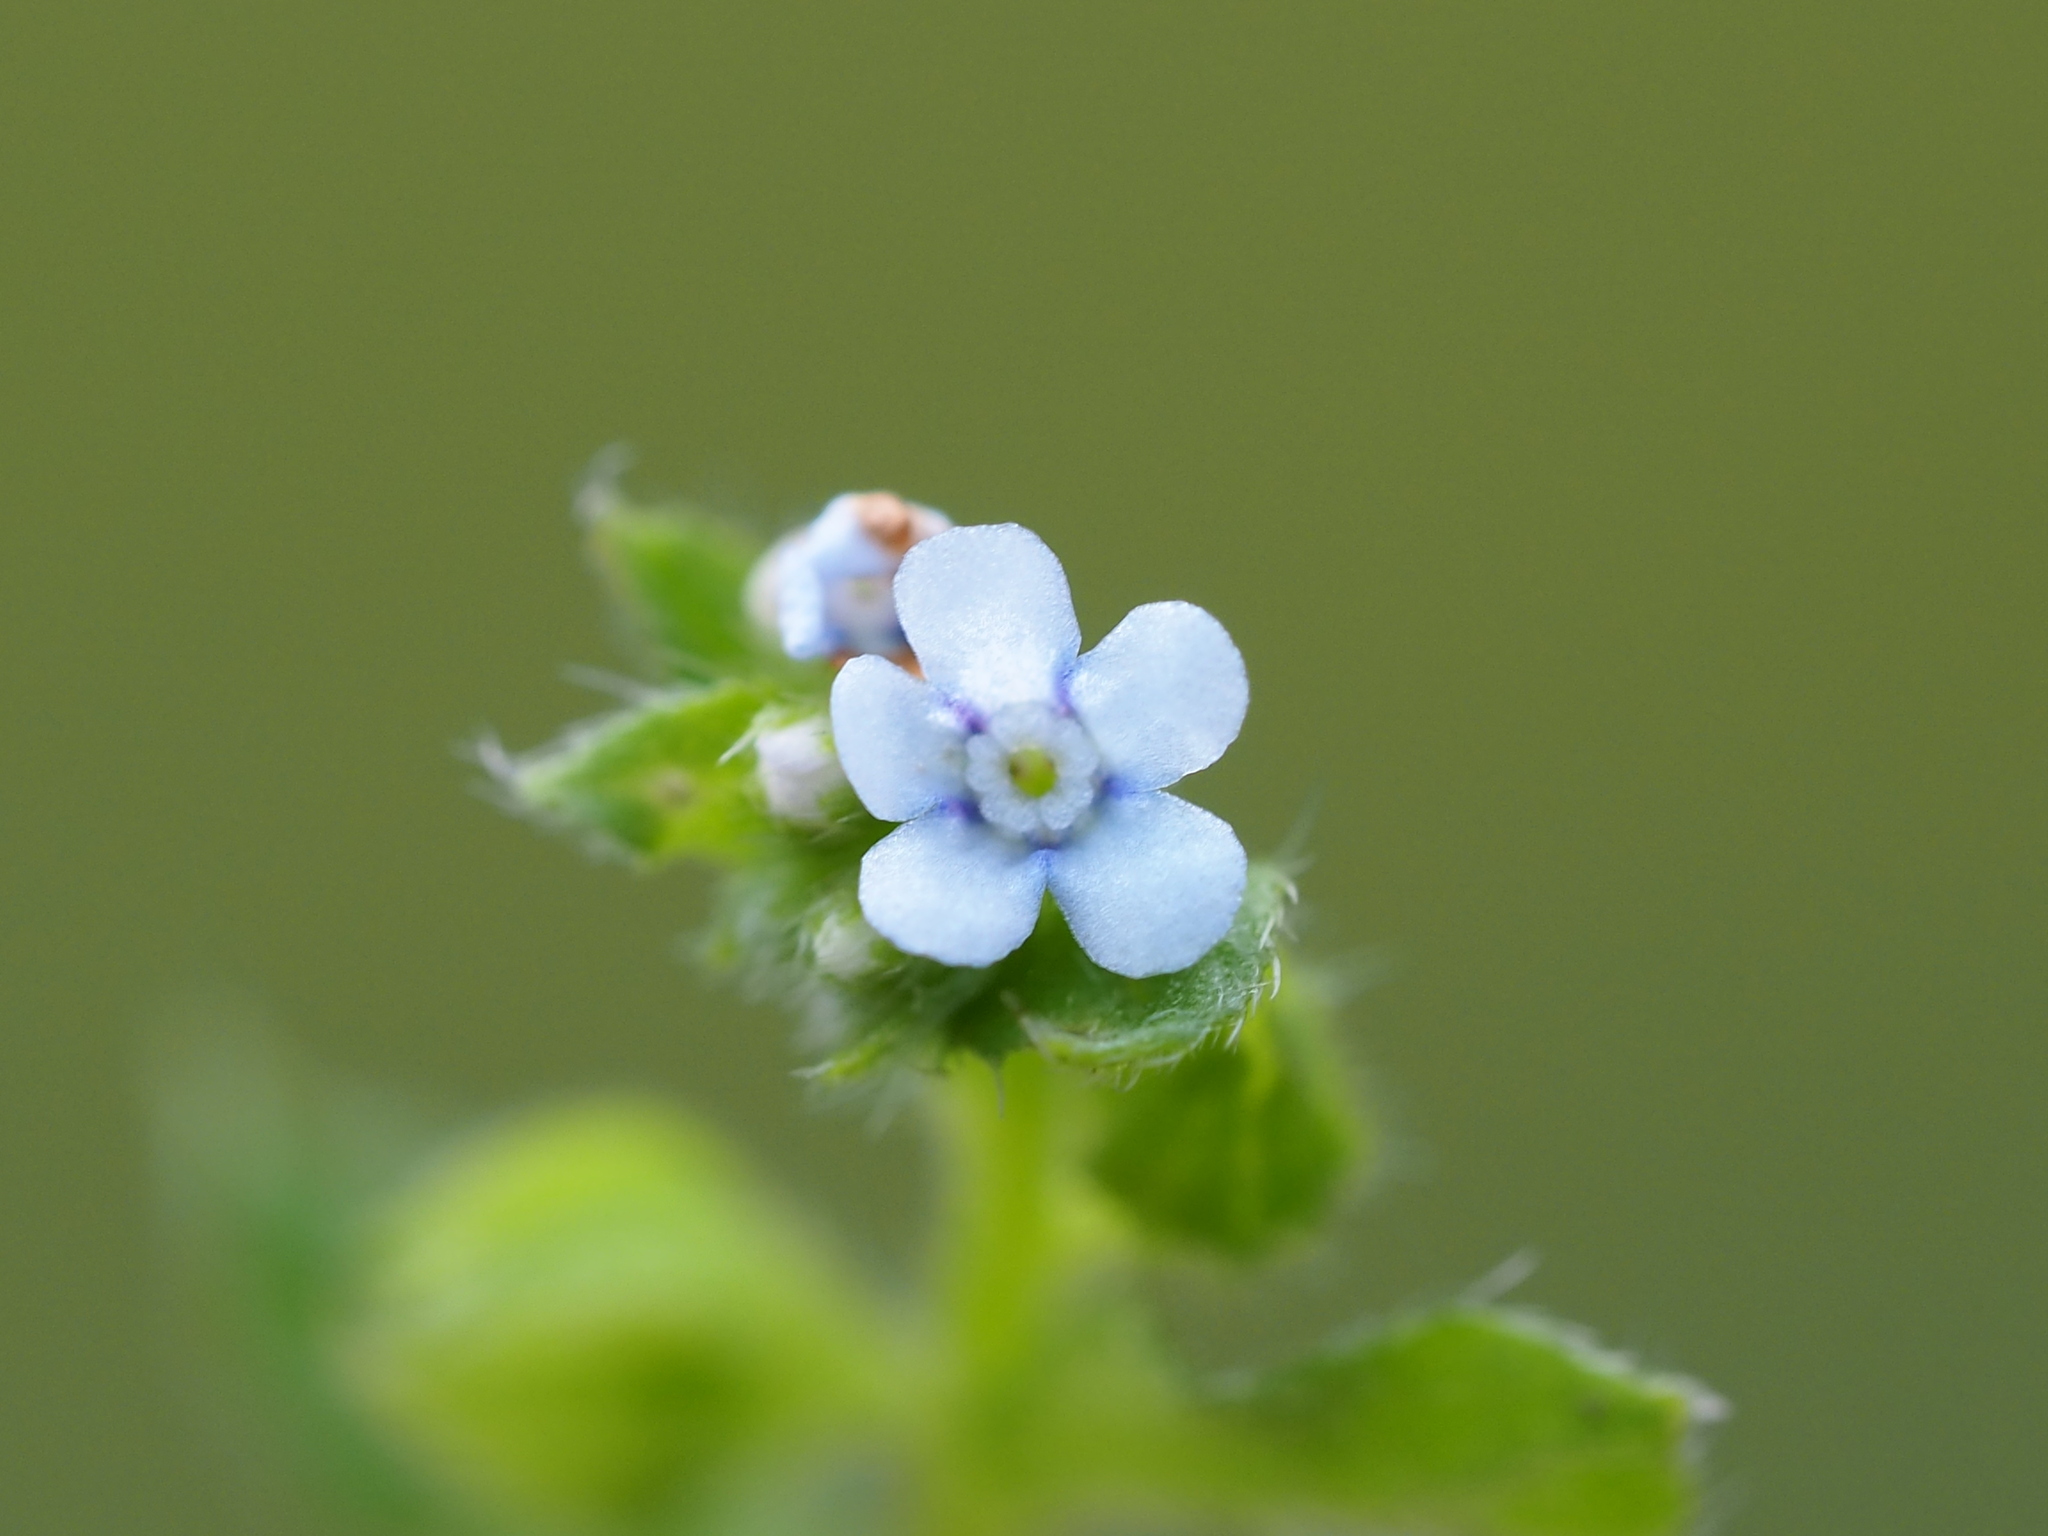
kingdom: Plantae
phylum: Tracheophyta
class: Magnoliopsida
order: Boraginales
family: Boraginaceae
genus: Bothriospermum
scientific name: Bothriospermum zeylanicum
